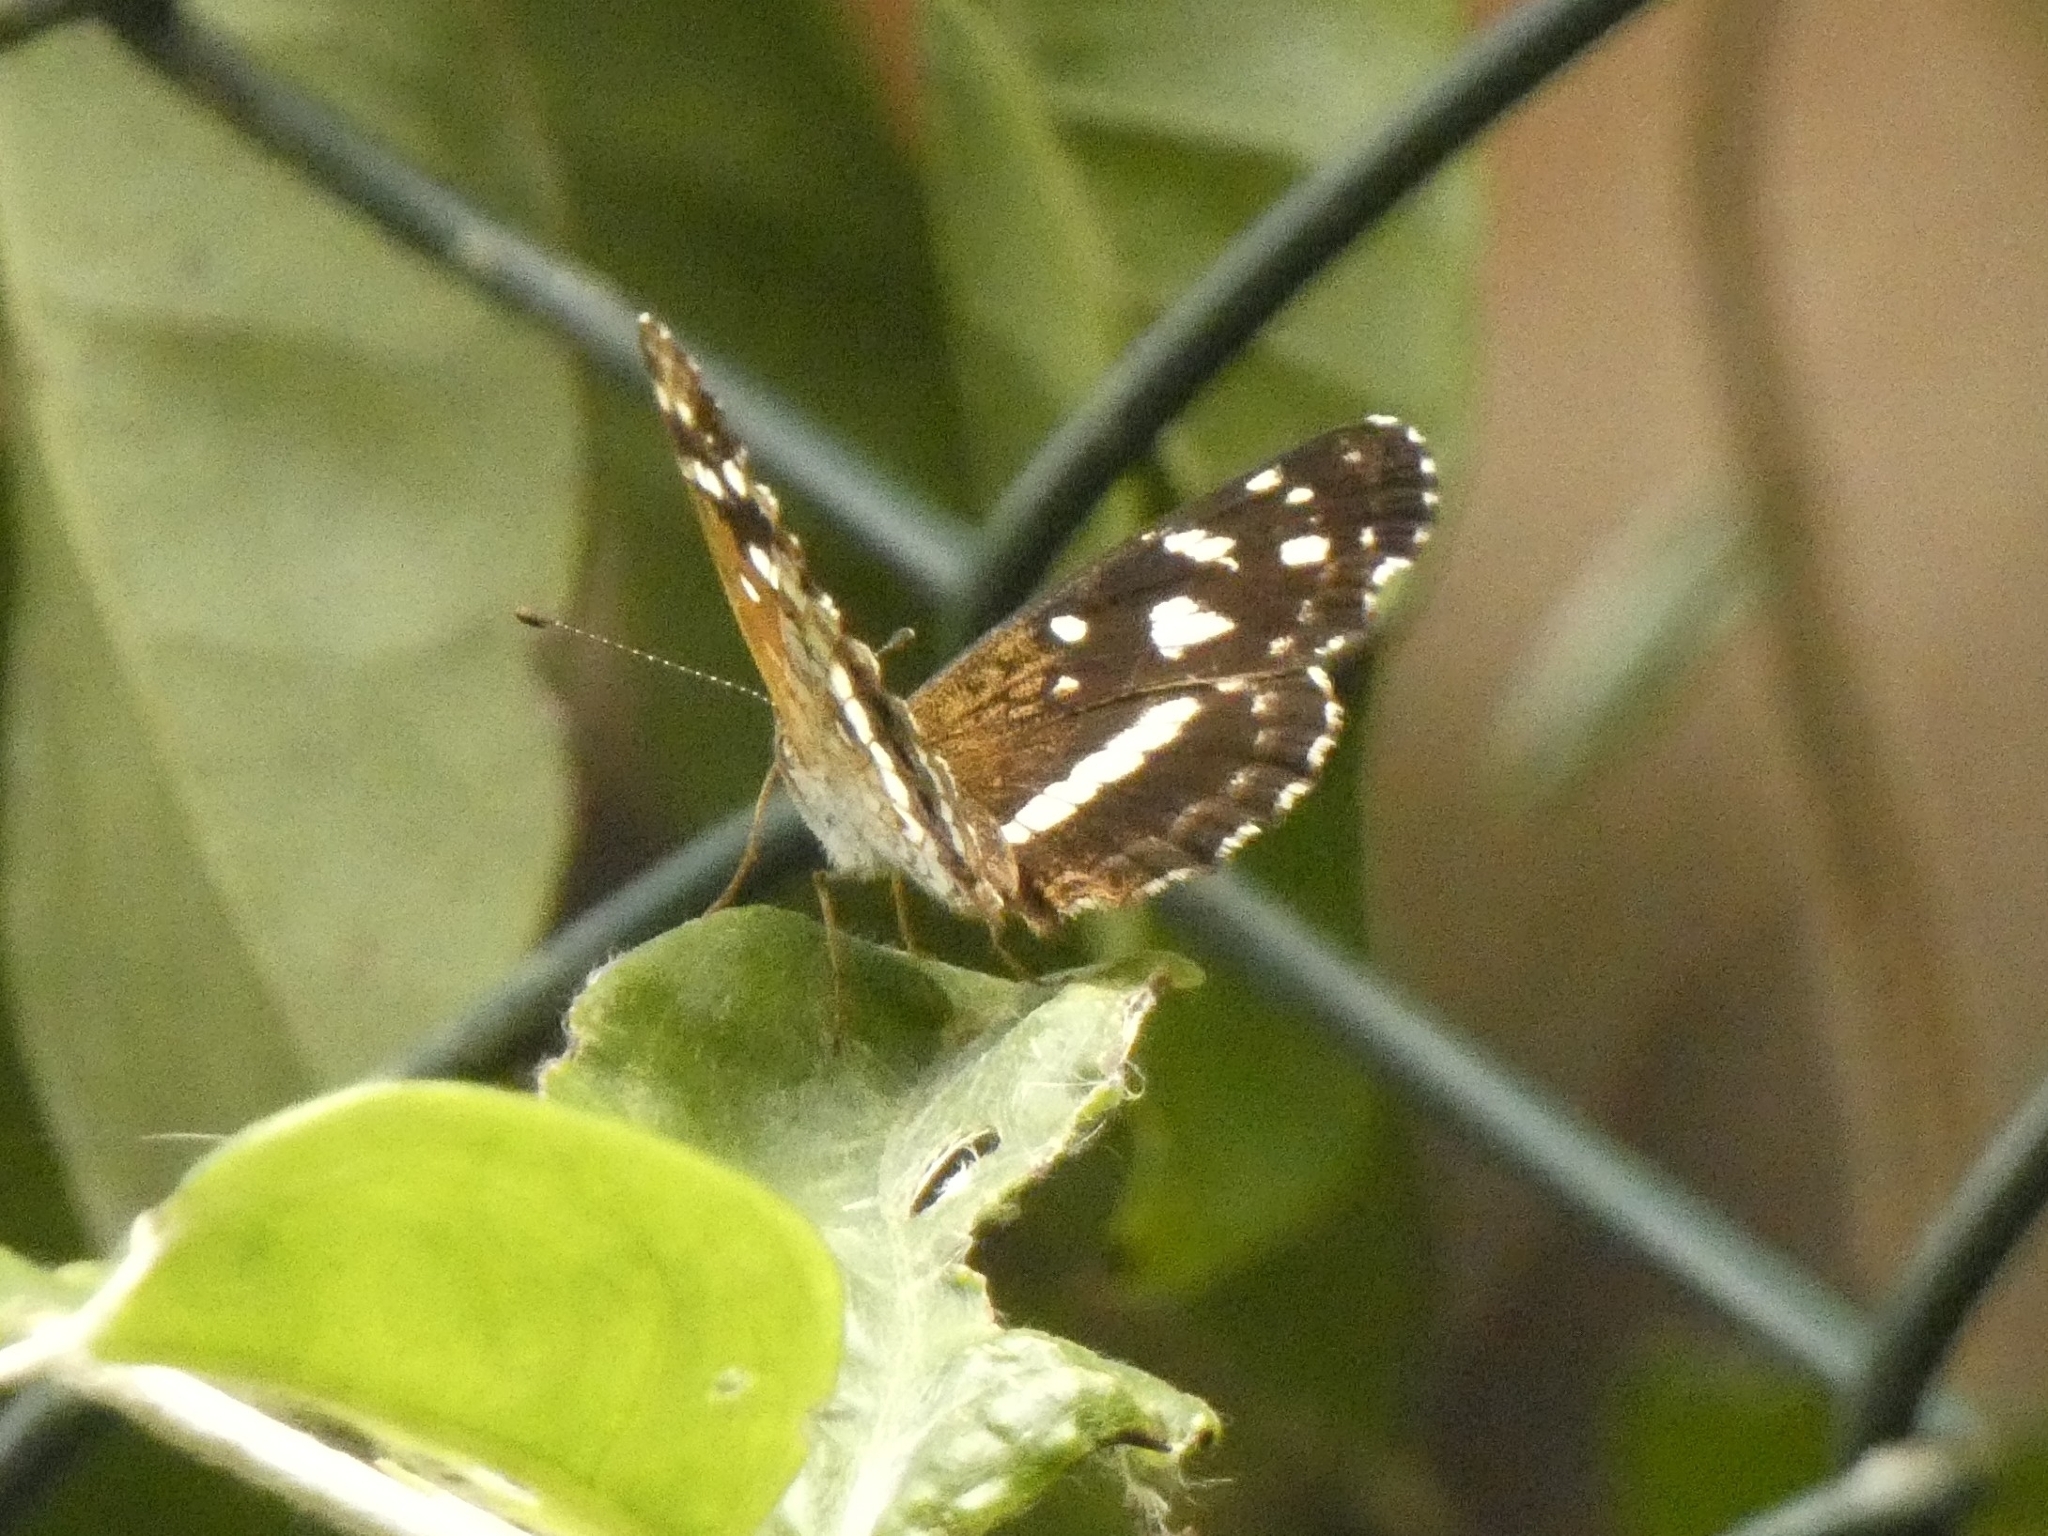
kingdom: Animalia
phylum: Arthropoda
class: Insecta
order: Lepidoptera
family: Nymphalidae
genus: Ortilia
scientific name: Ortilia ithra
